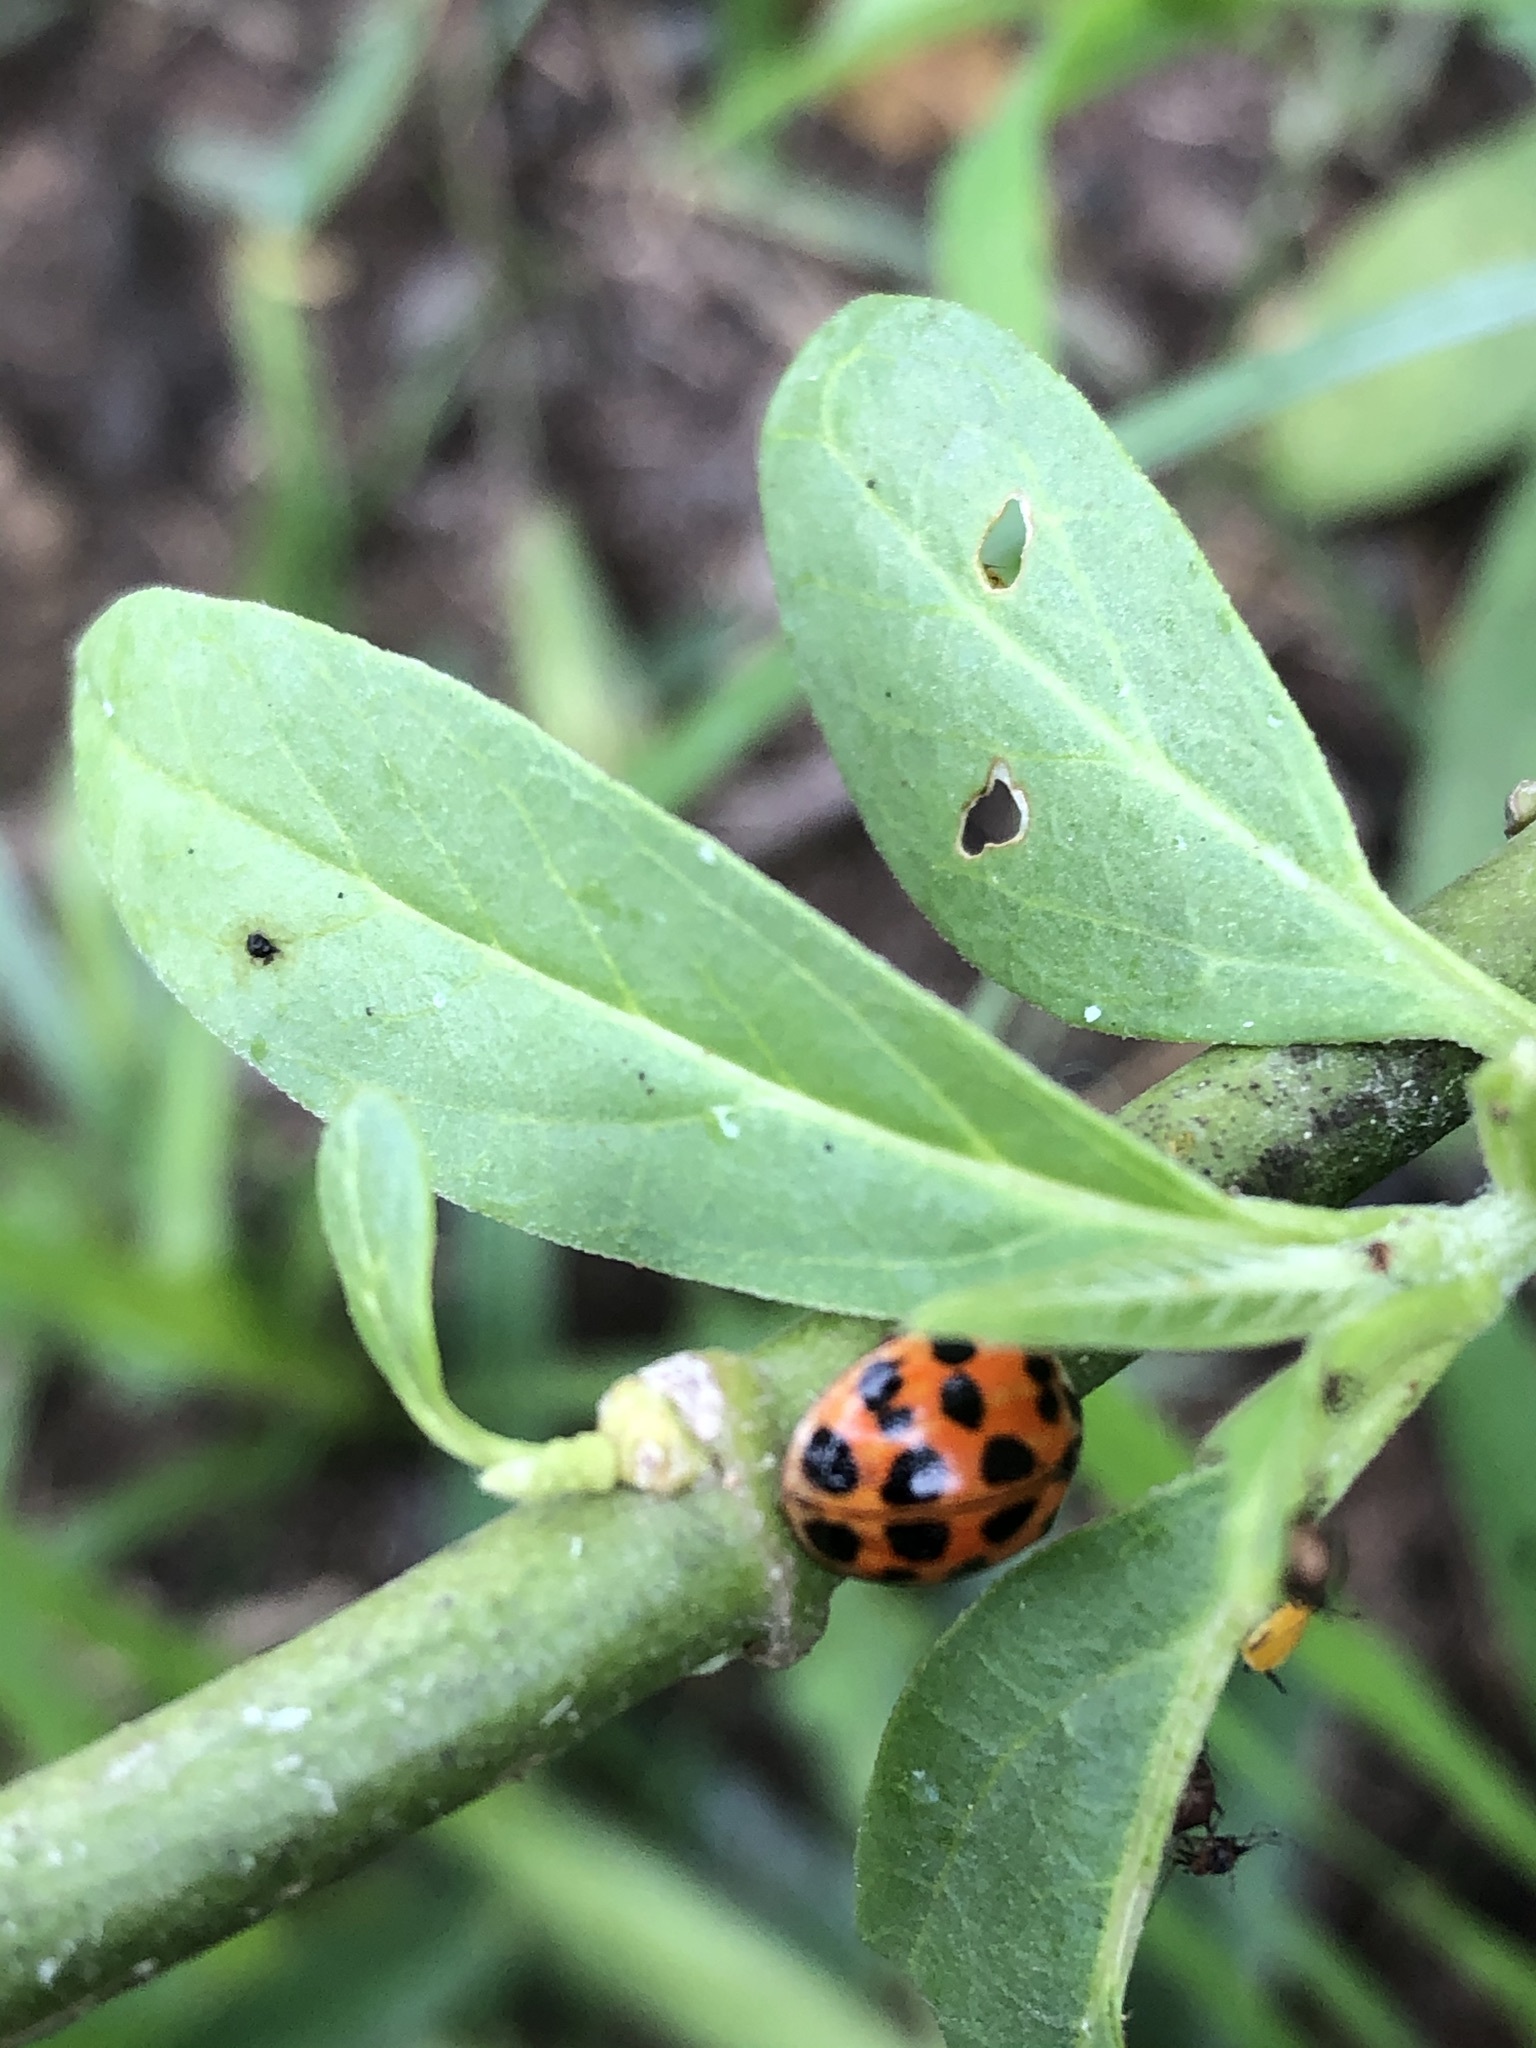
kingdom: Animalia
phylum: Arthropoda
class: Insecta
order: Coleoptera
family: Coccinellidae
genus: Harmonia
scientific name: Harmonia axyridis
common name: Harlequin ladybird
